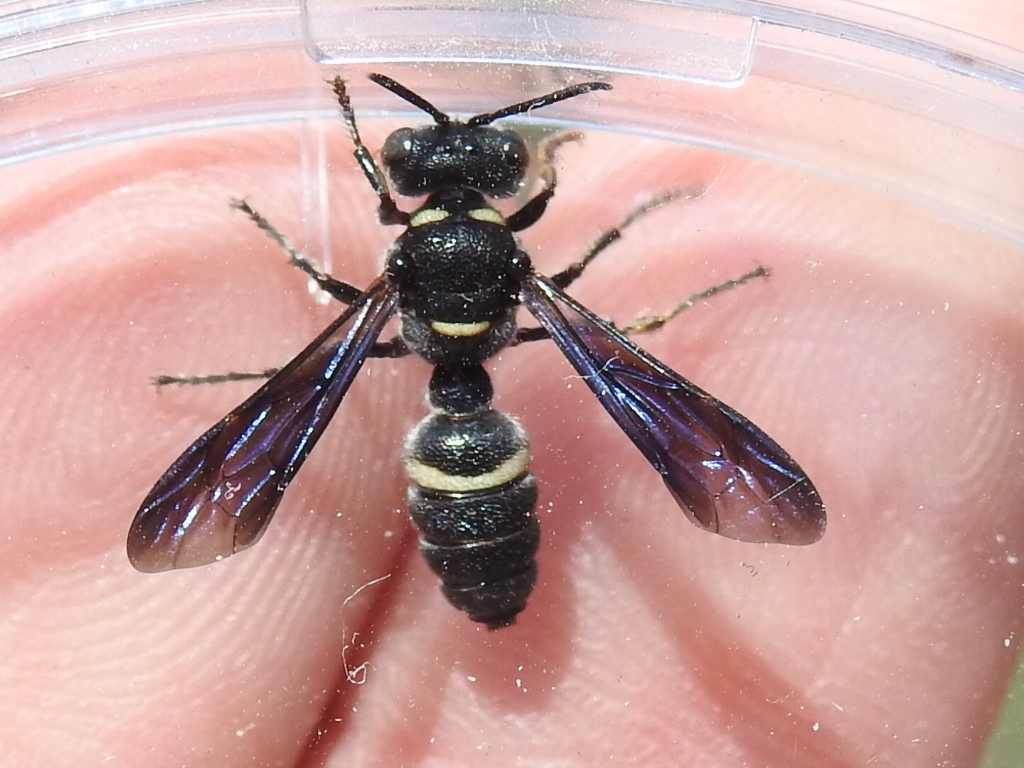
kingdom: Animalia
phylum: Arthropoda
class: Insecta
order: Hymenoptera
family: Crabronidae
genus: Cerceris
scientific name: Cerceris fumipennis
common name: Smokey-winged beetle bandit wasp
